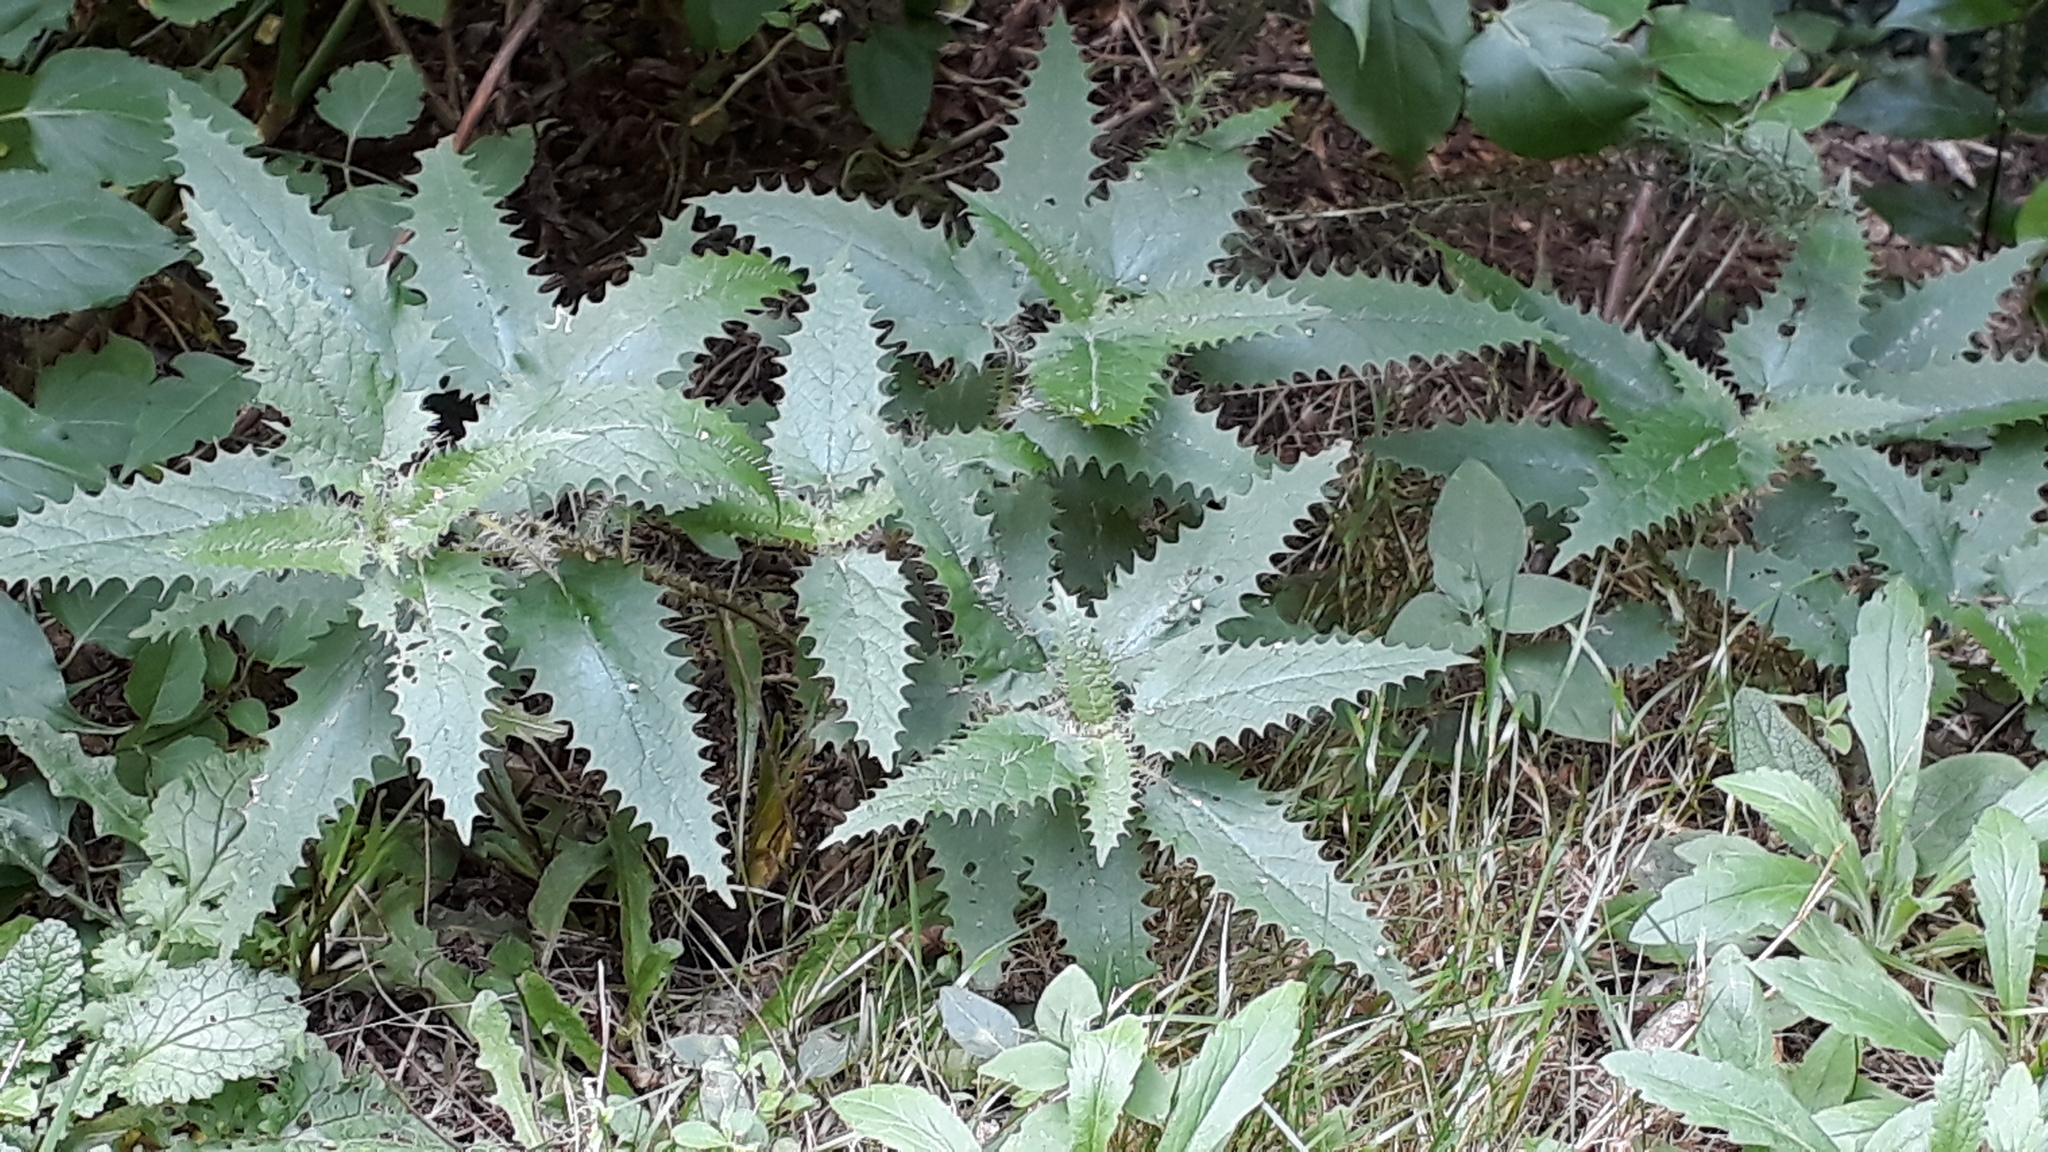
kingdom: Plantae
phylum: Tracheophyta
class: Magnoliopsida
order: Rosales
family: Urticaceae
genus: Urtica
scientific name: Urtica ferox
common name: Tree nettle
